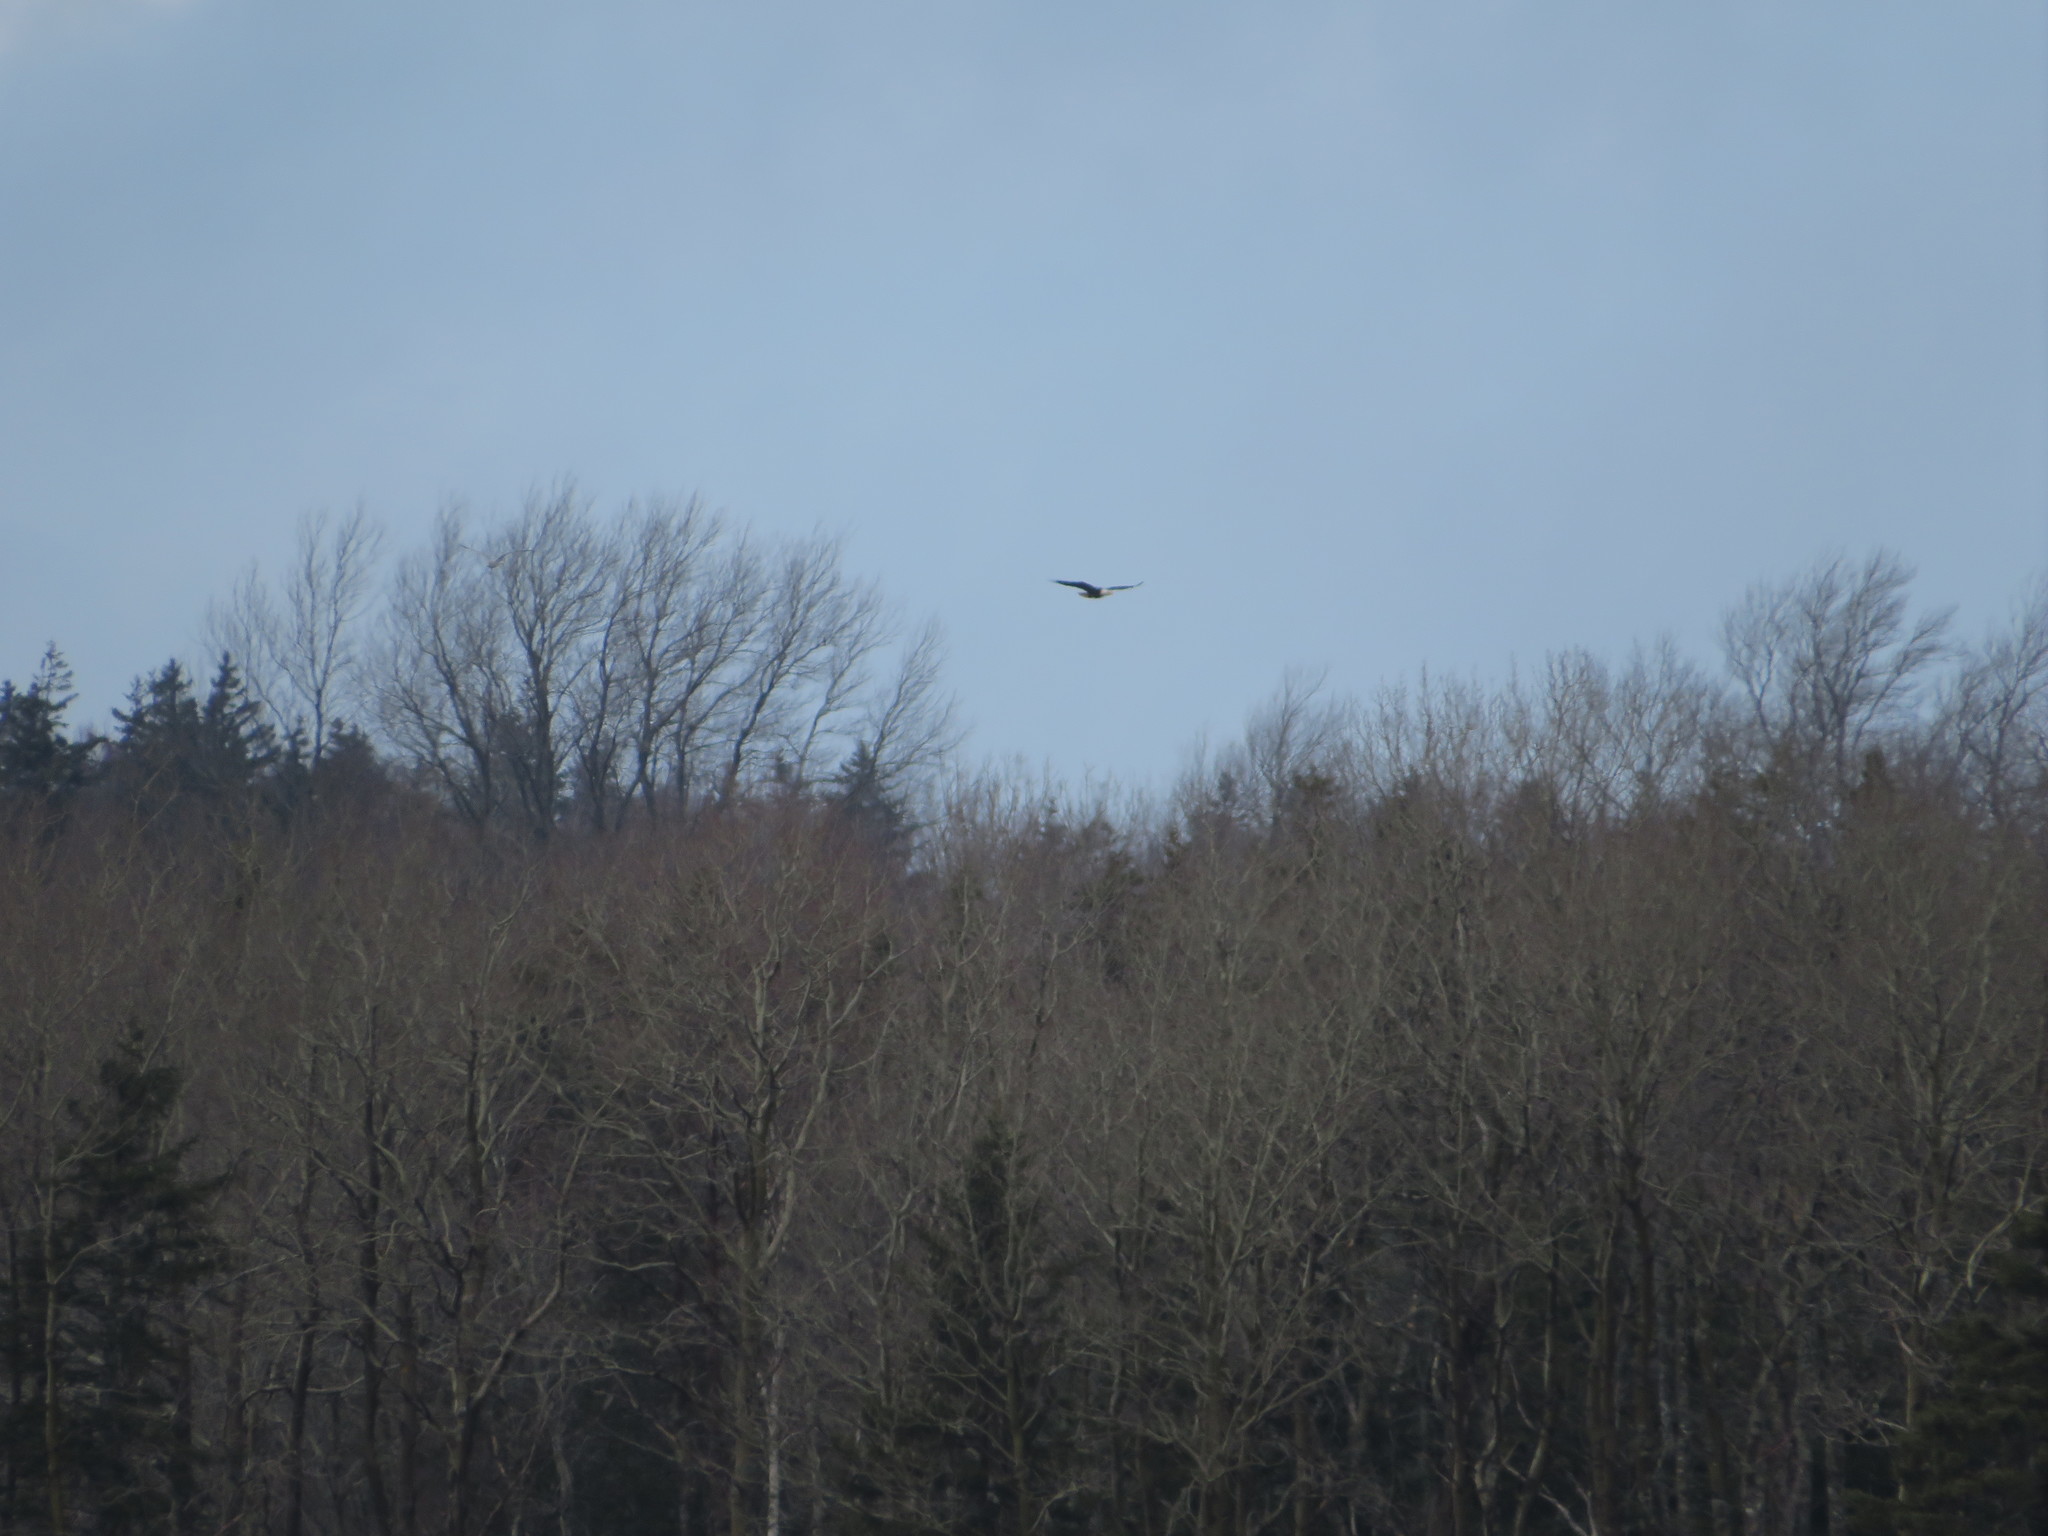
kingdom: Animalia
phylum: Chordata
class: Aves
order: Accipitriformes
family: Accipitridae
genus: Haliaeetus
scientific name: Haliaeetus leucocephalus
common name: Bald eagle
